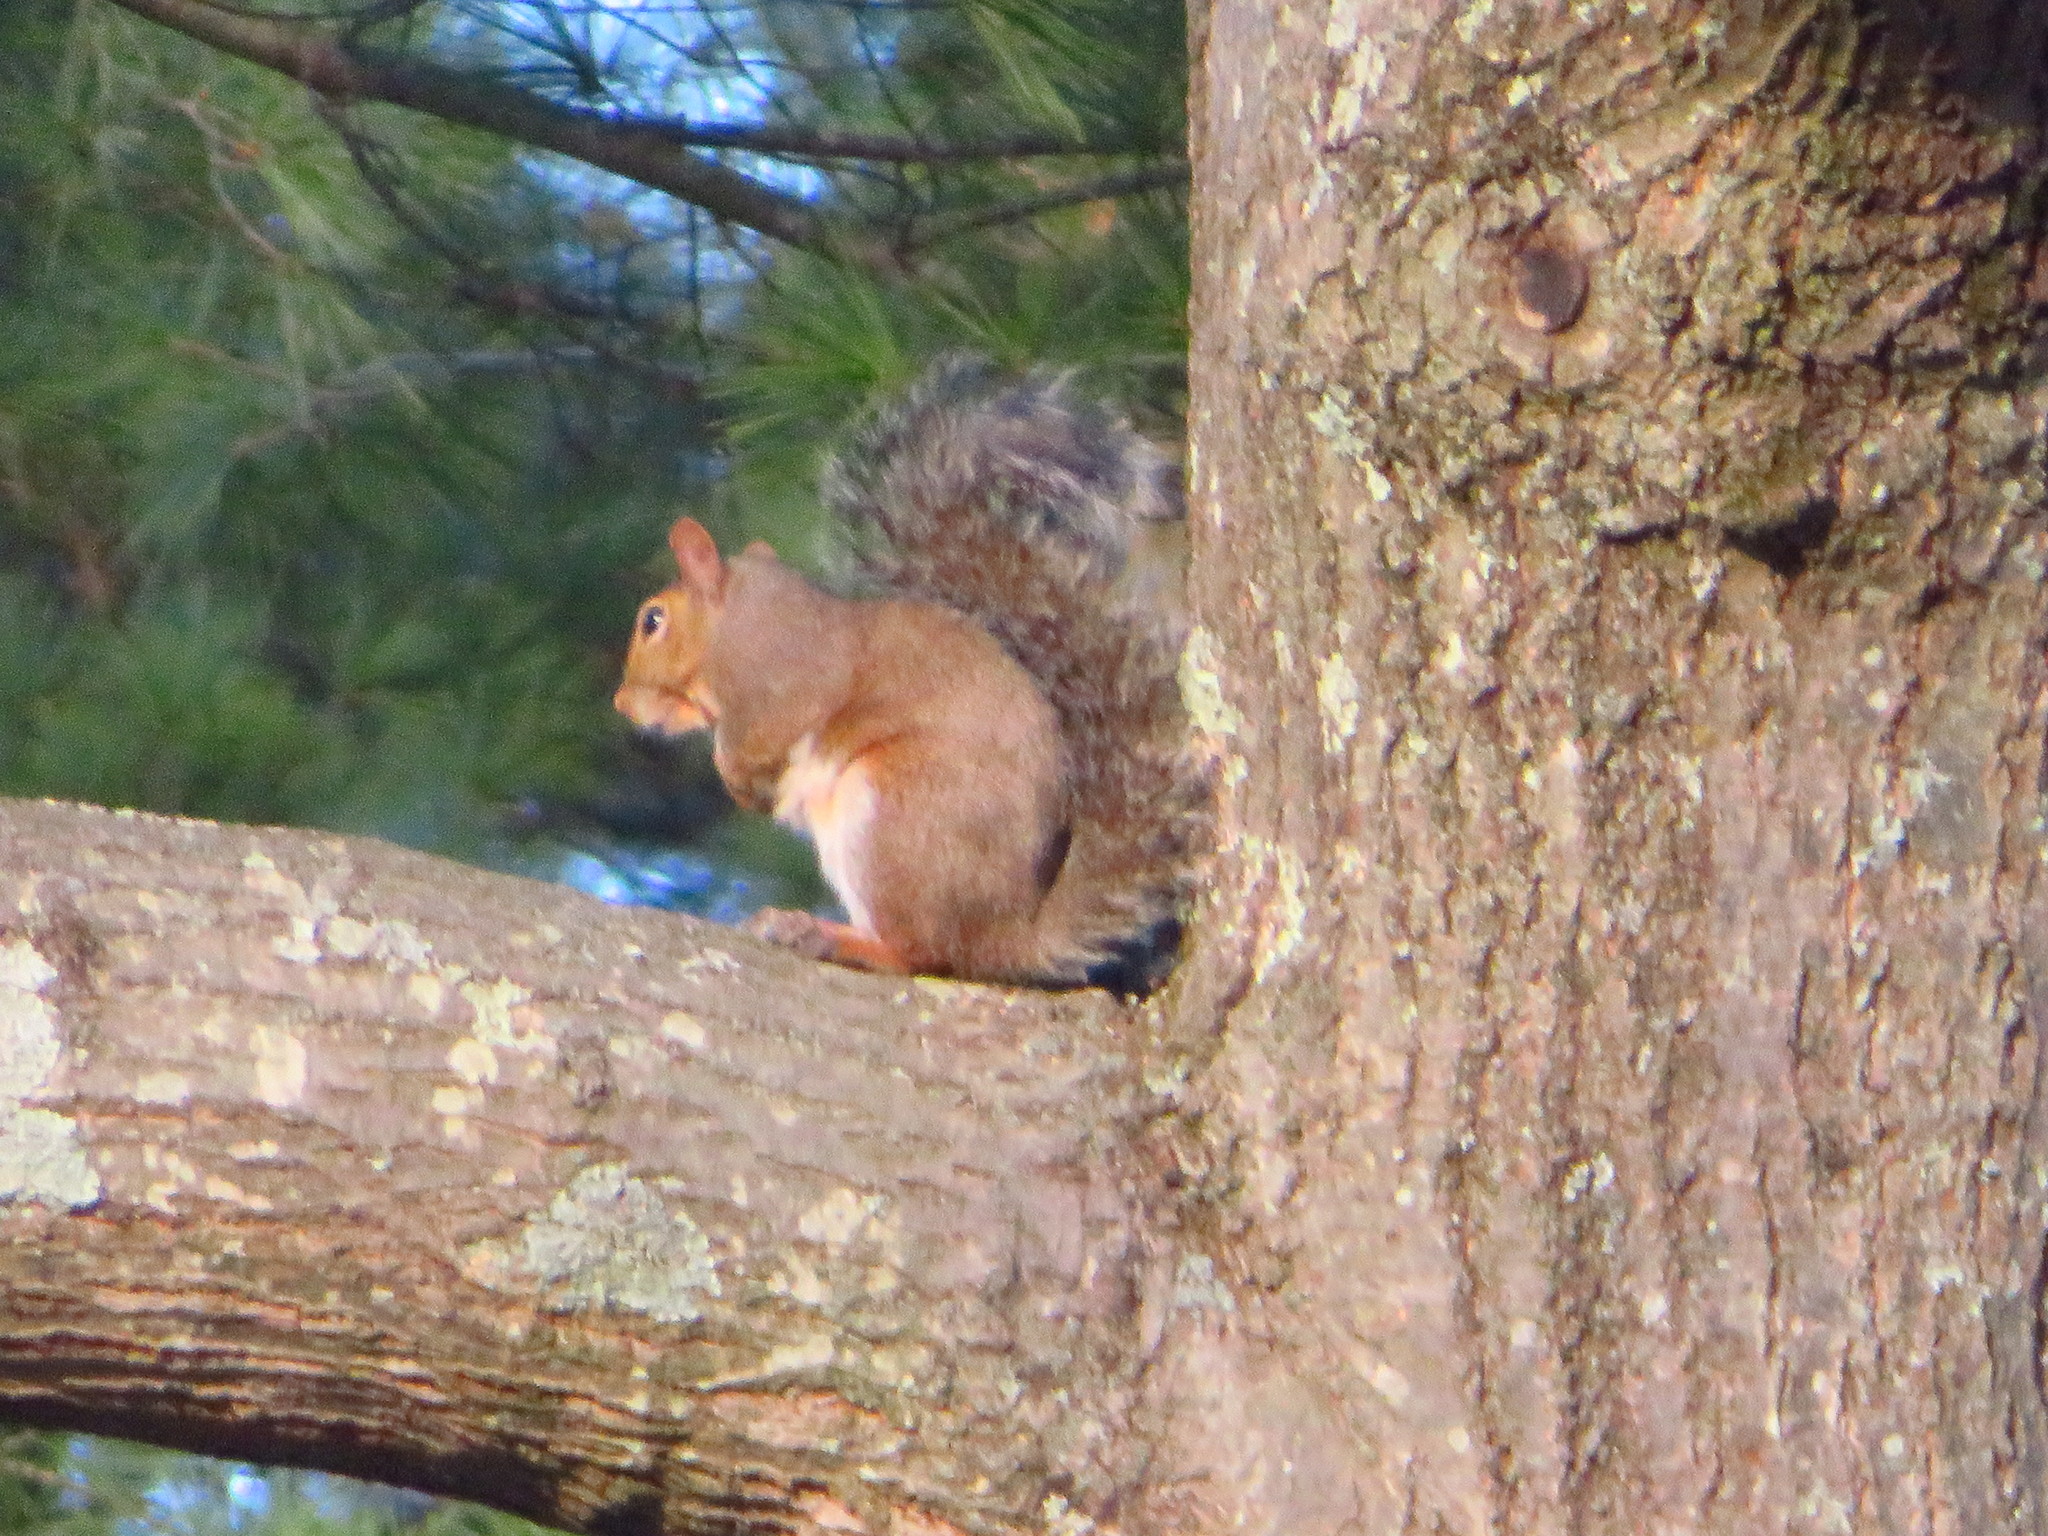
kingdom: Animalia
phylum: Chordata
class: Mammalia
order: Rodentia
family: Sciuridae
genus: Sciurus
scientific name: Sciurus carolinensis
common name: Eastern gray squirrel
